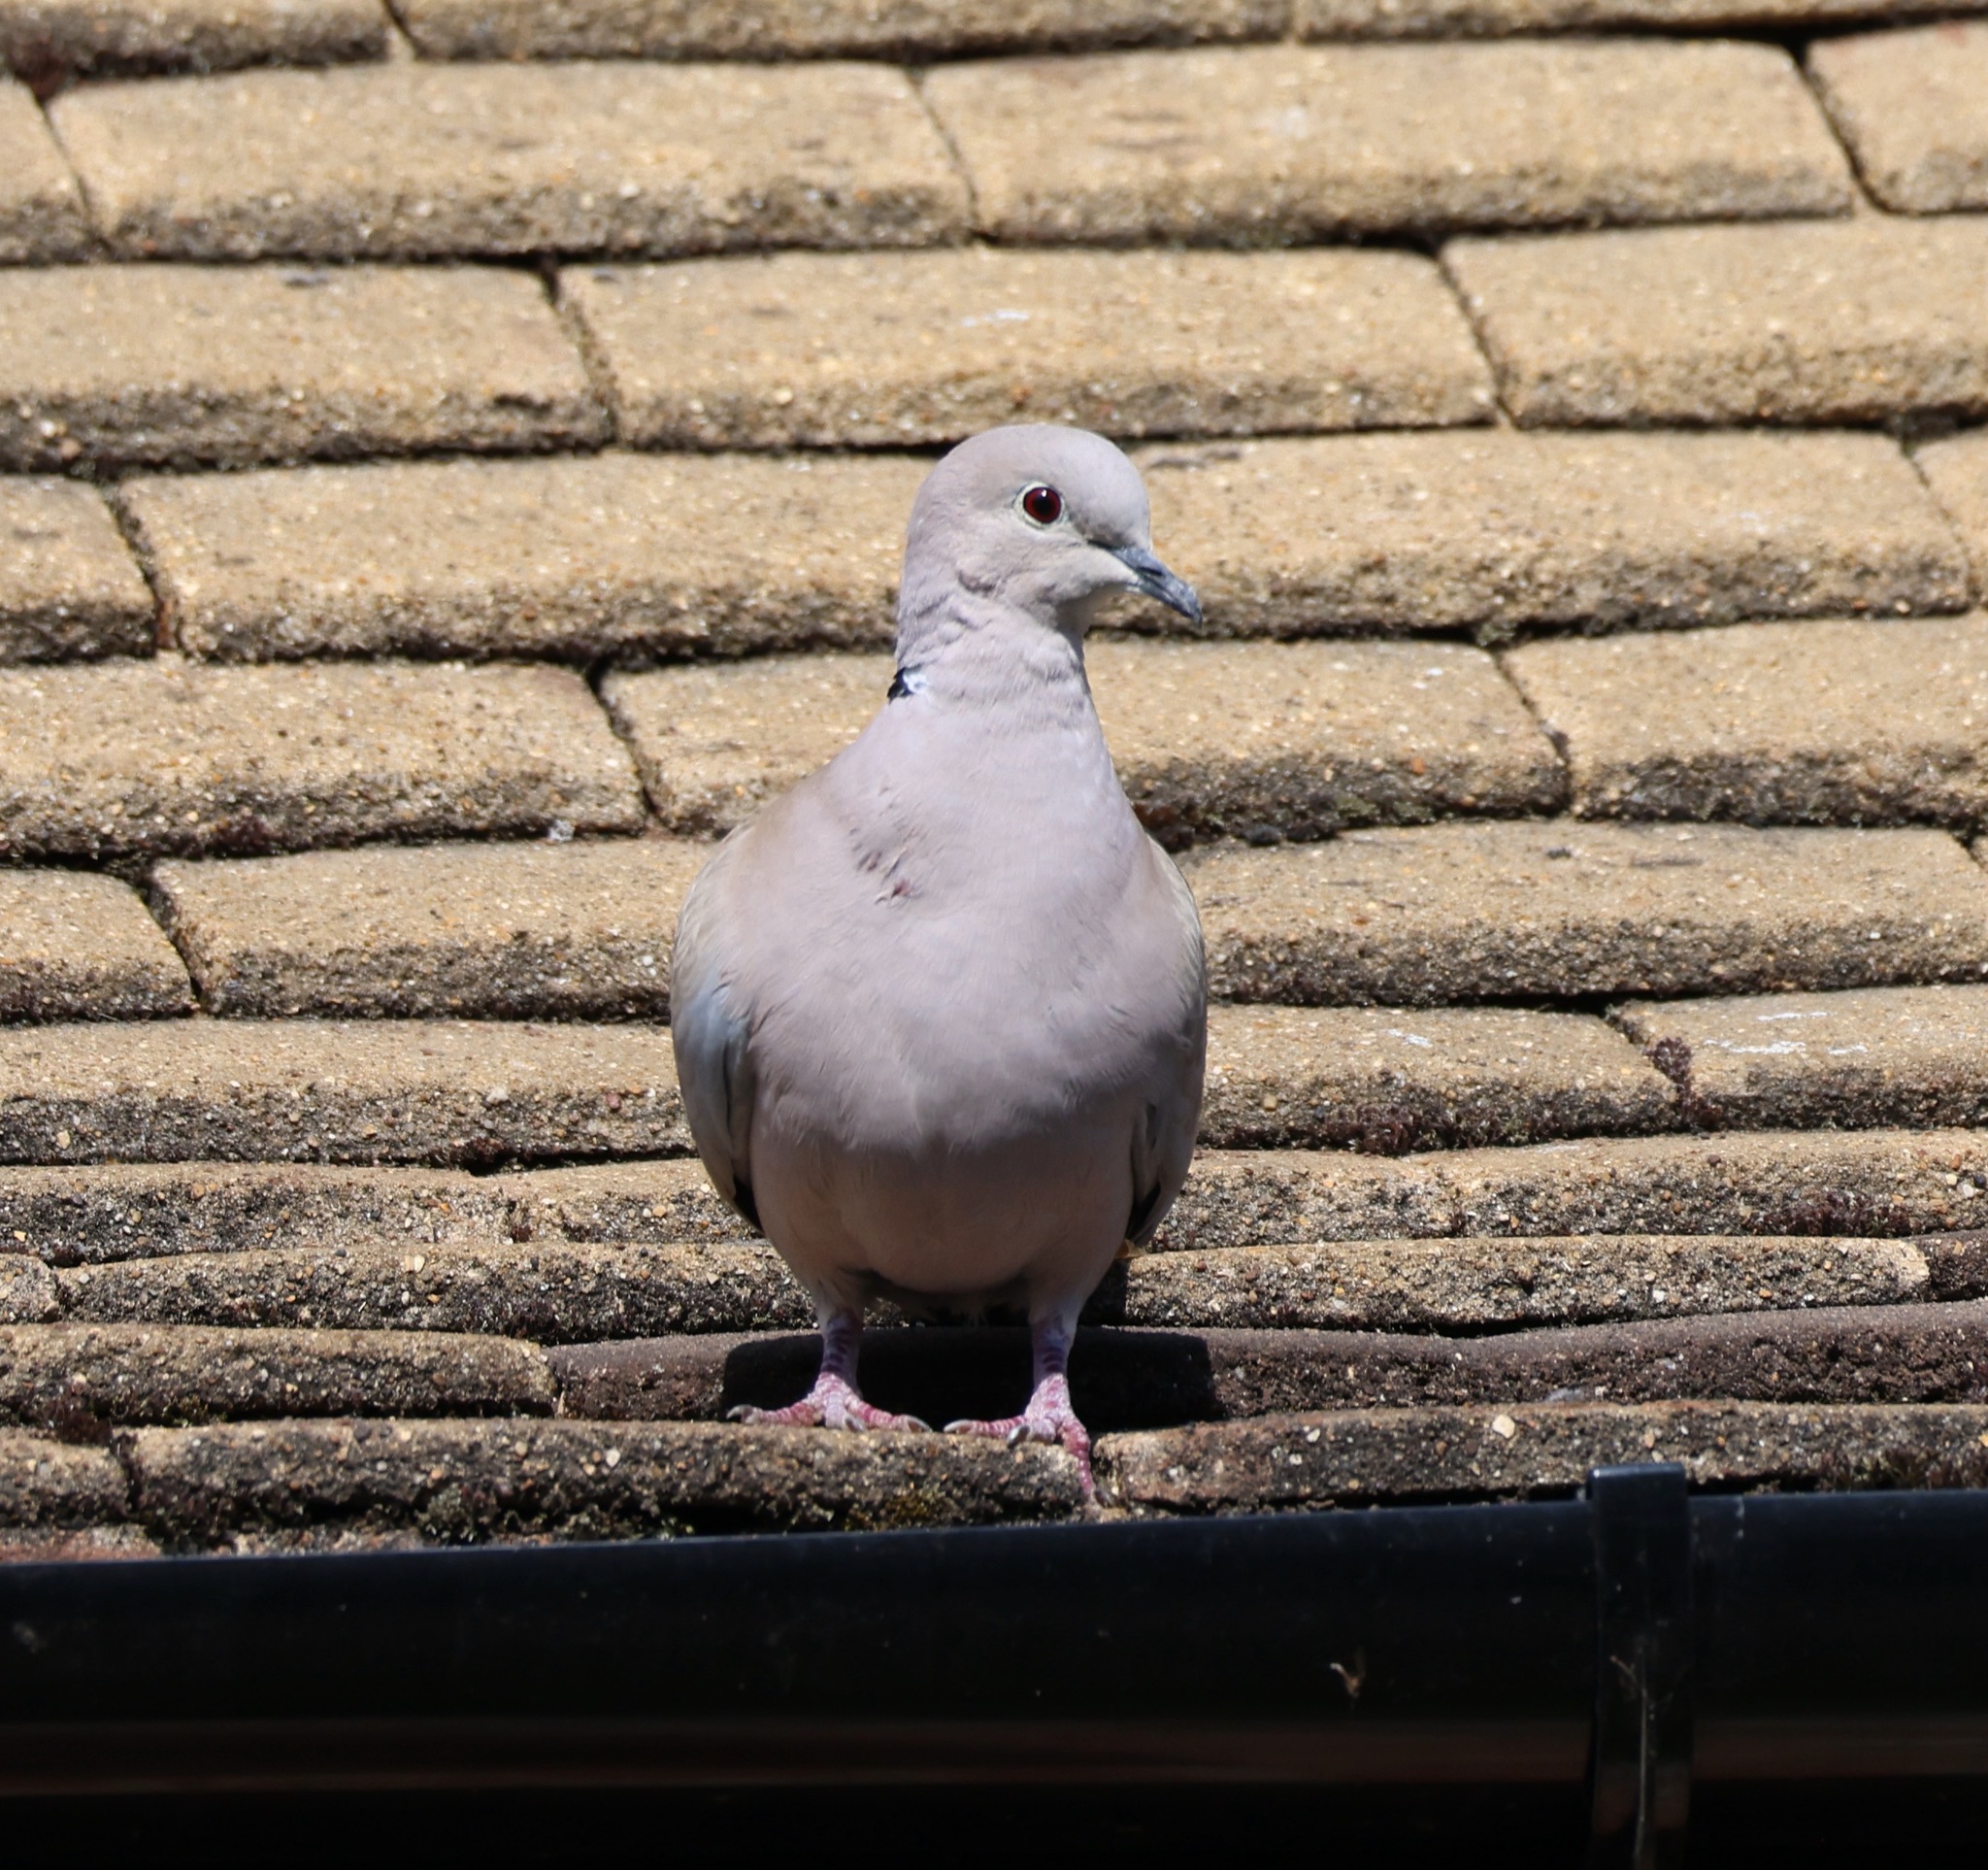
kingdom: Animalia
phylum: Chordata
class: Aves
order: Columbiformes
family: Columbidae
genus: Streptopelia
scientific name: Streptopelia decaocto
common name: Eurasian collared dove
